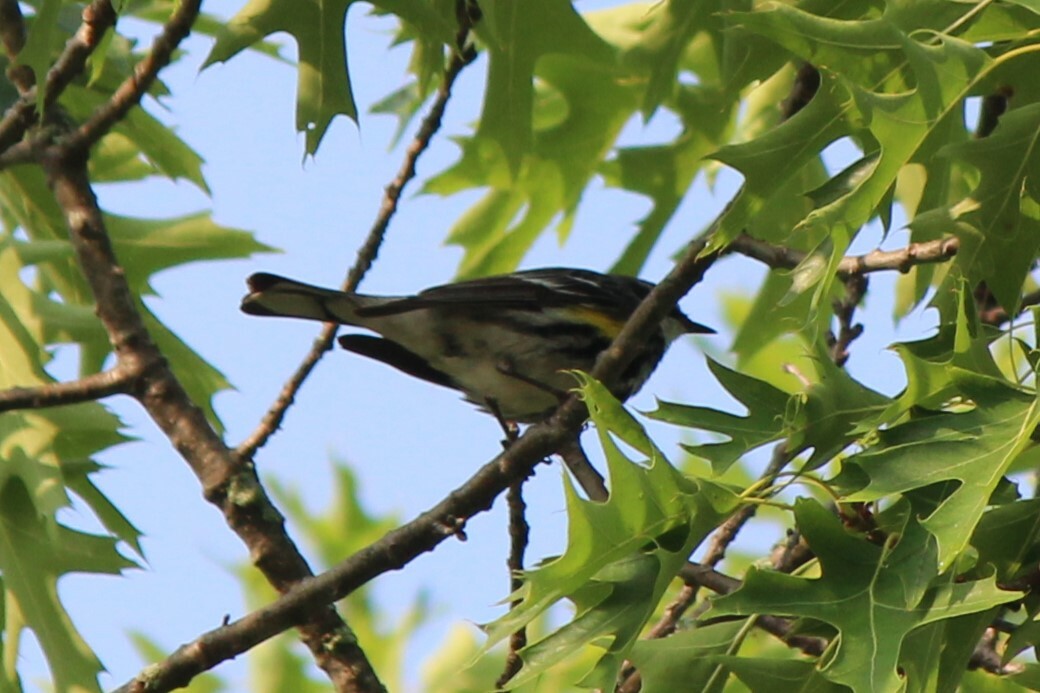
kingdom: Animalia
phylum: Chordata
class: Aves
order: Passeriformes
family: Parulidae
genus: Setophaga
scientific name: Setophaga coronata
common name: Myrtle warbler
